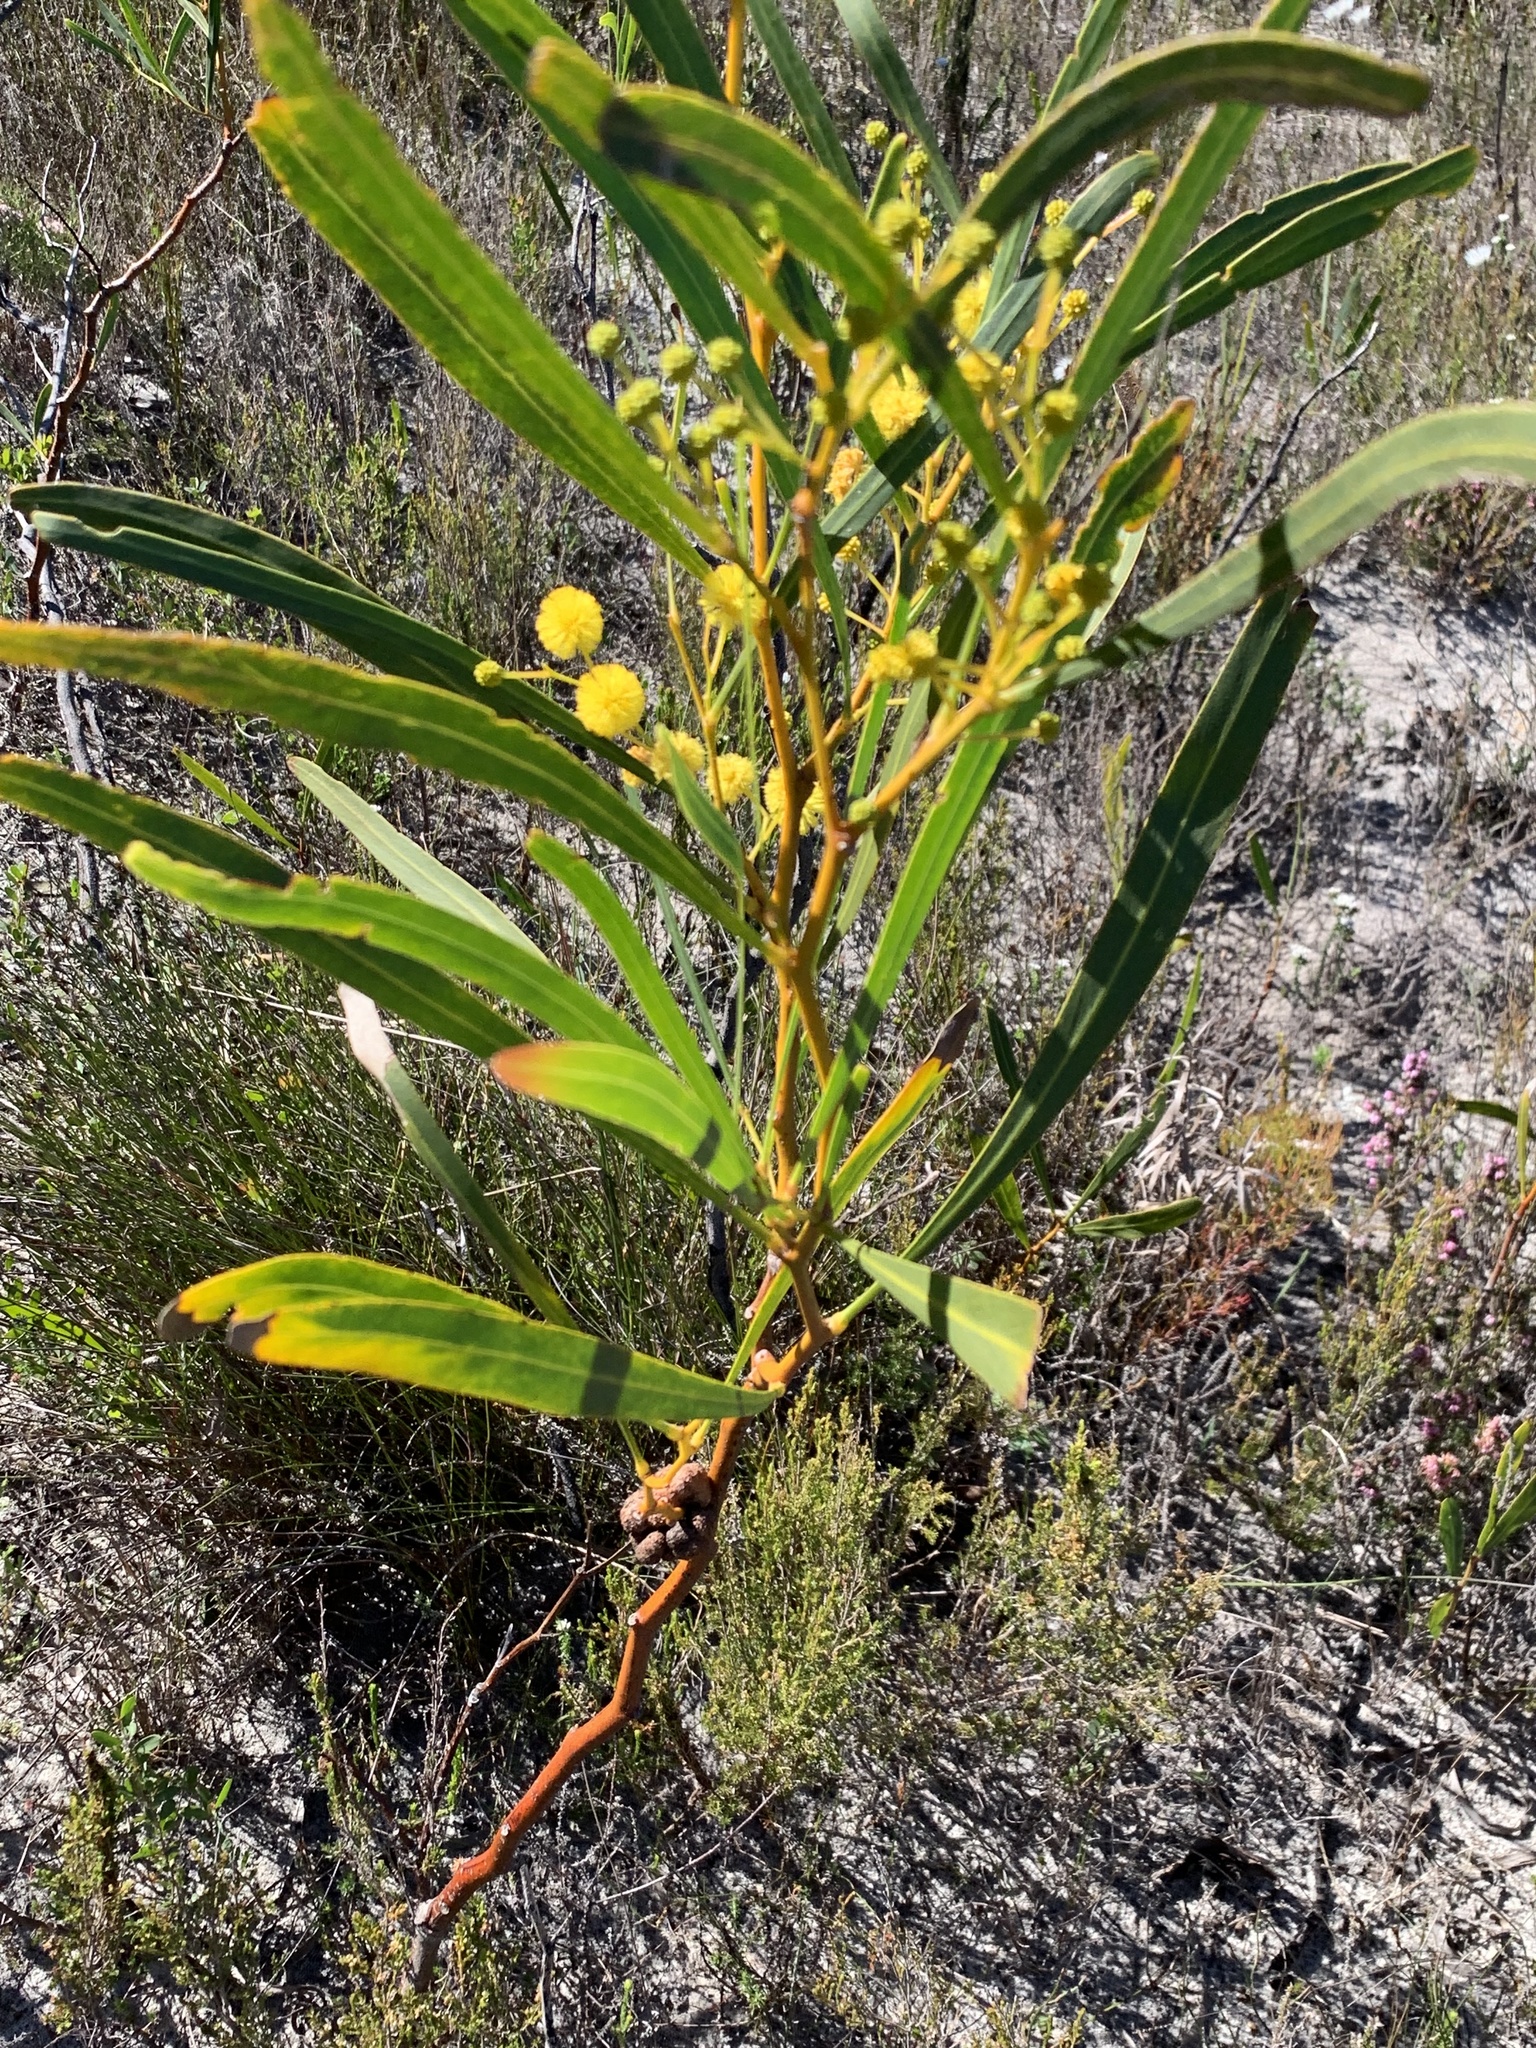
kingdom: Plantae
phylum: Tracheophyta
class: Magnoliopsida
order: Fabales
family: Fabaceae
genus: Acacia
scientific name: Acacia saligna
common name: Orange wattle
